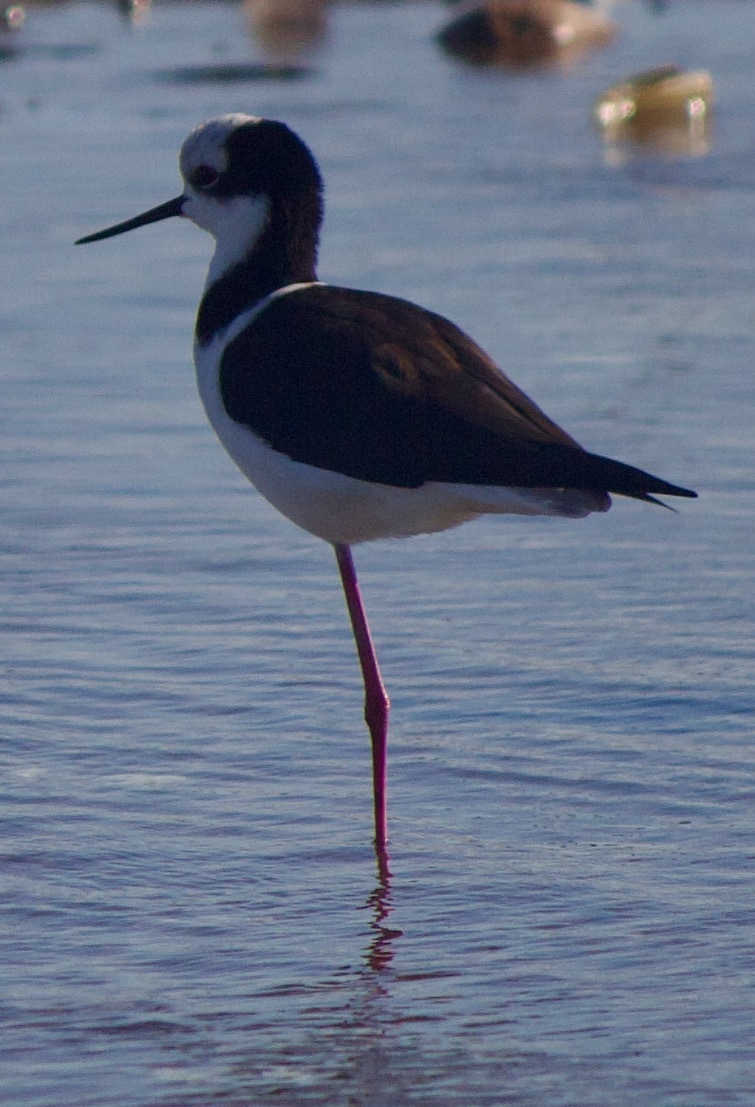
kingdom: Animalia
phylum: Chordata
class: Aves
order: Charadriiformes
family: Recurvirostridae
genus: Himantopus
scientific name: Himantopus mexicanus
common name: Black-necked stilt
